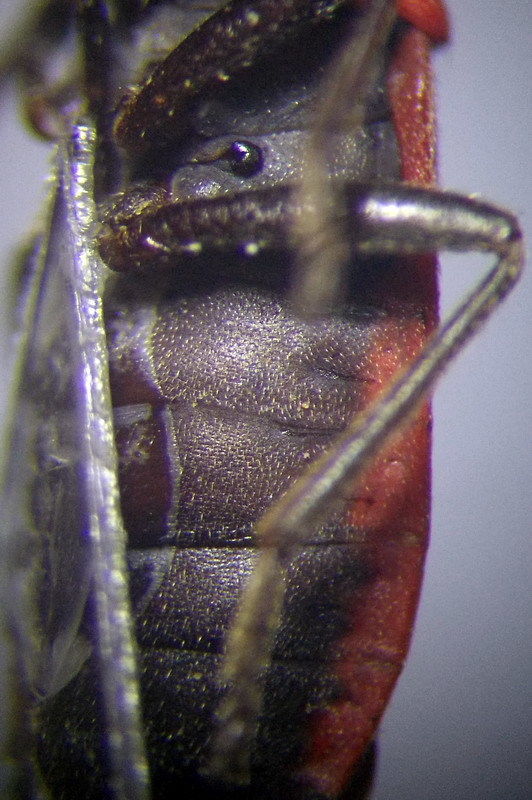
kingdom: Animalia
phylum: Arthropoda
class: Insecta
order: Hemiptera
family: Lygaeidae
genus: Melanocoryphus
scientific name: Melanocoryphus tristrami
